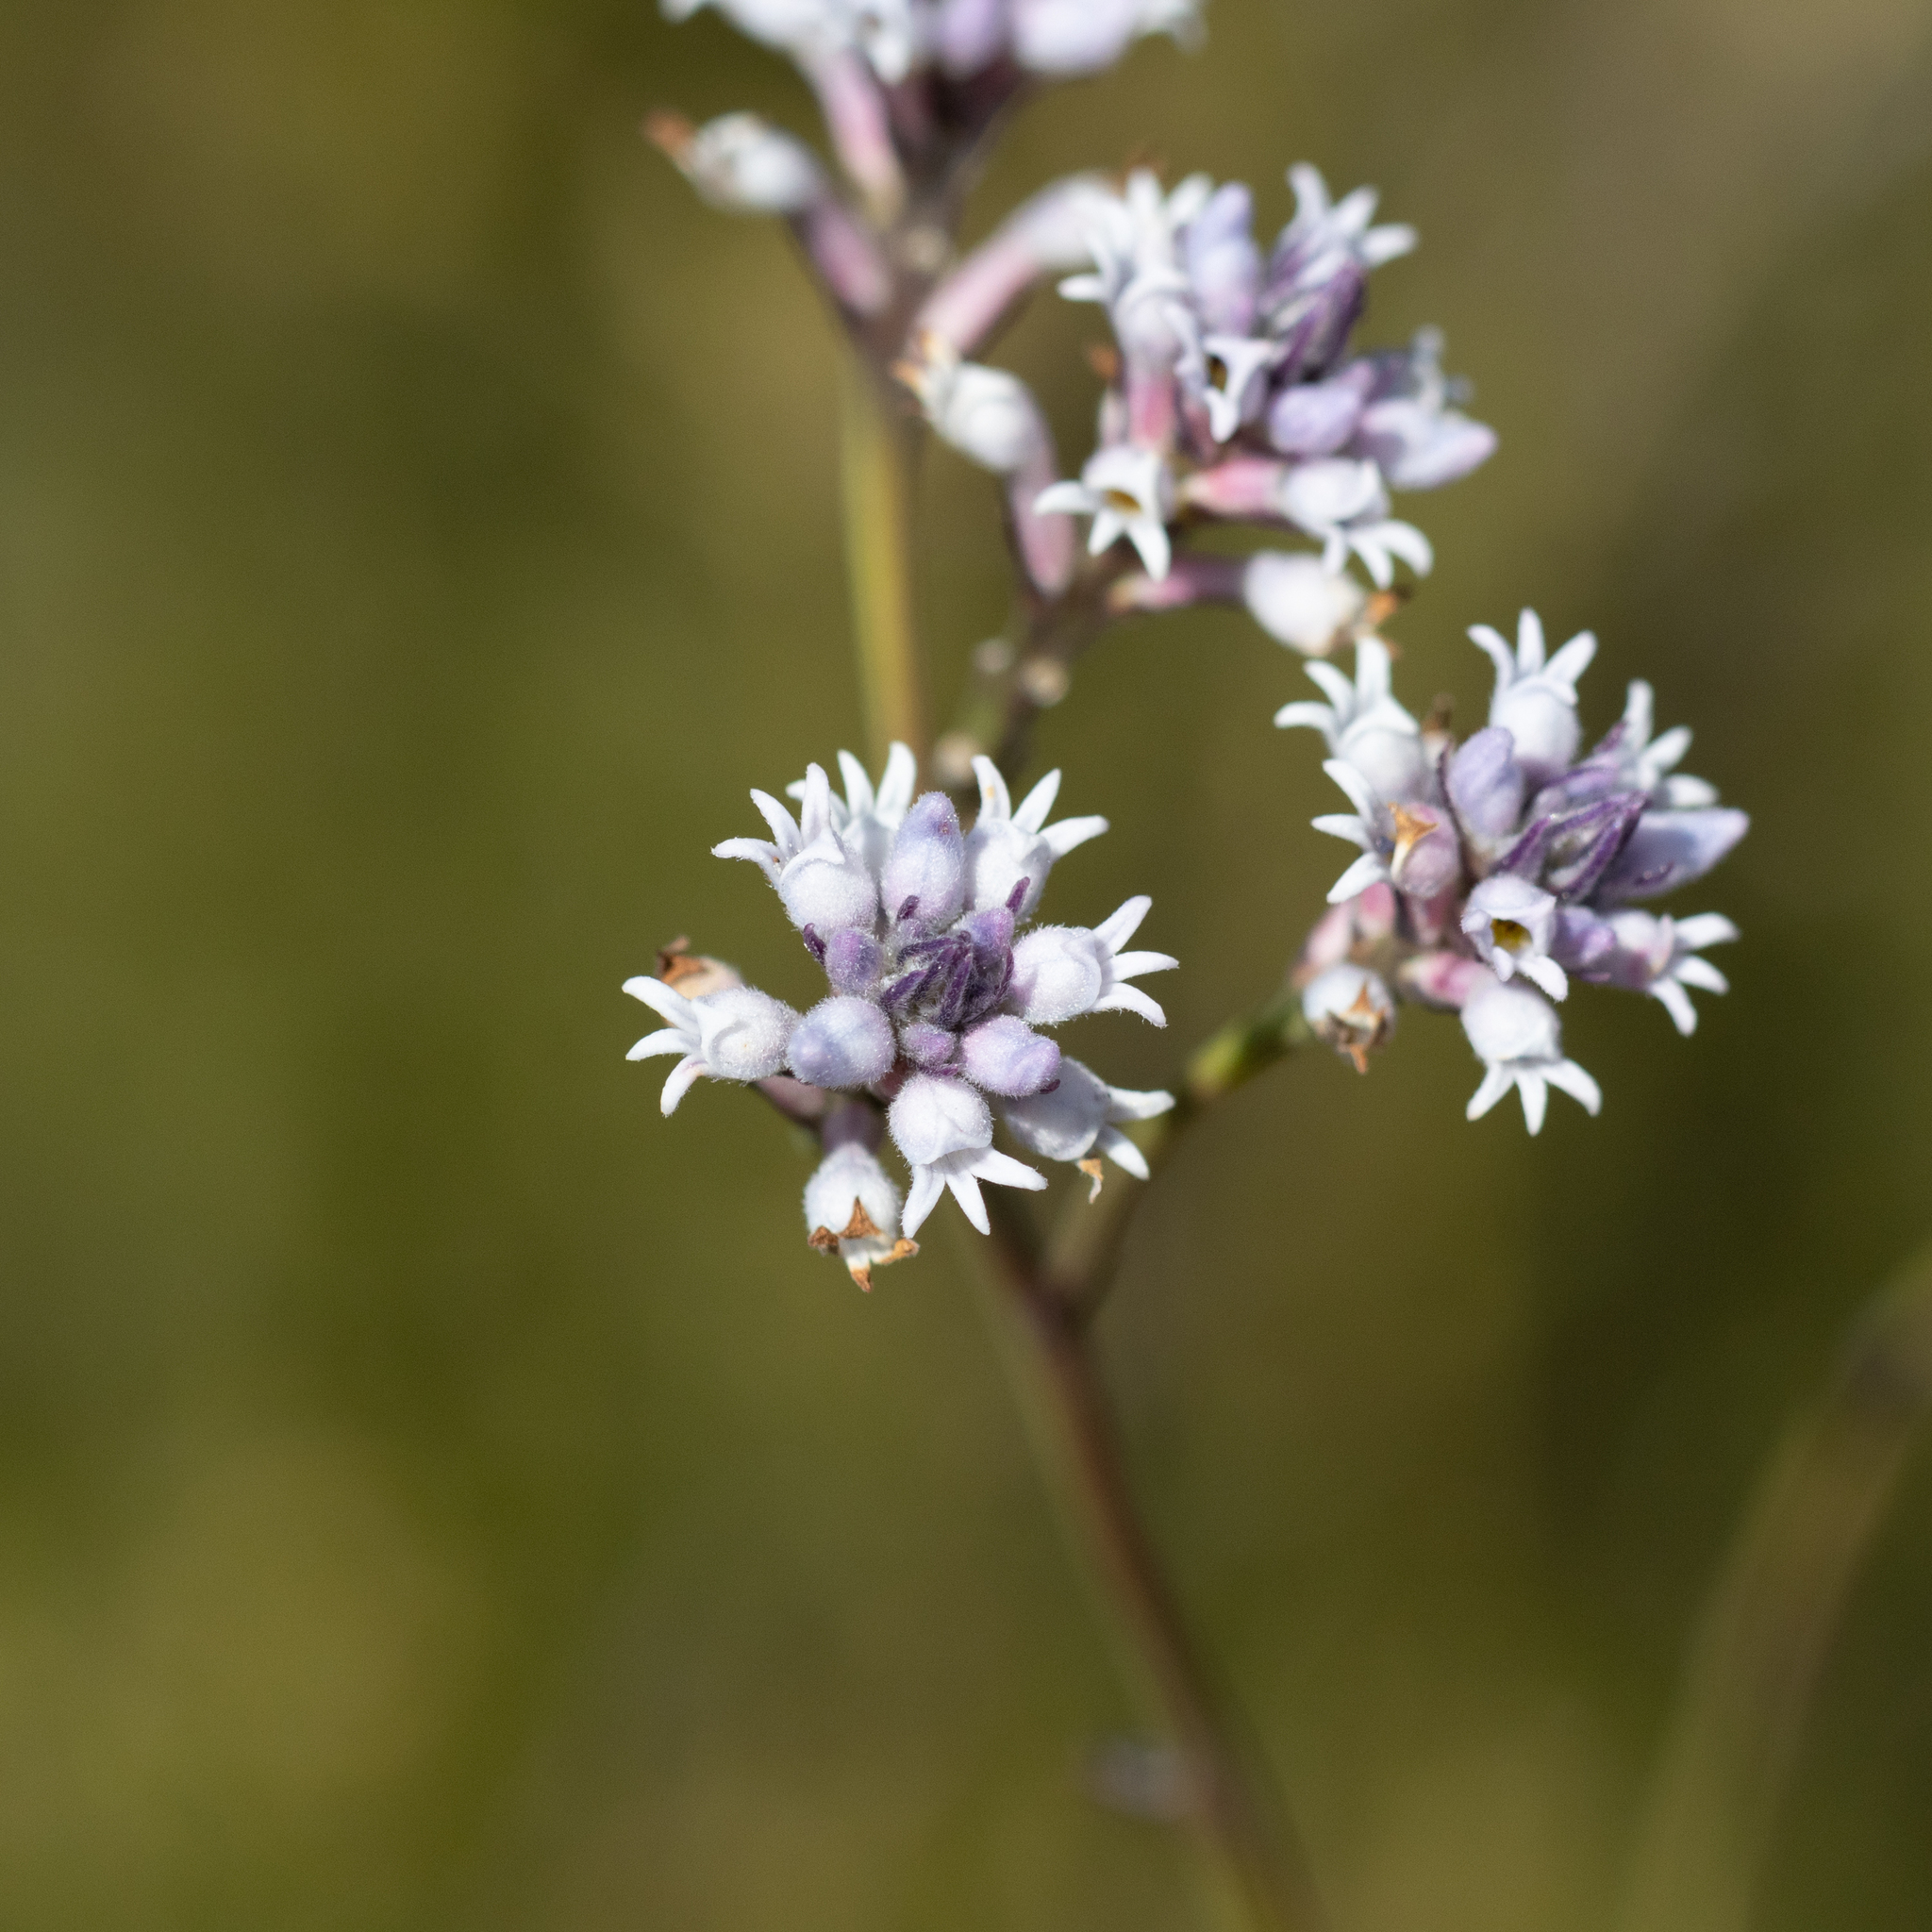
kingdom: Plantae
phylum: Tracheophyta
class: Magnoliopsida
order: Proteales
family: Proteaceae
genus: Conospermum
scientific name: Conospermum patens
